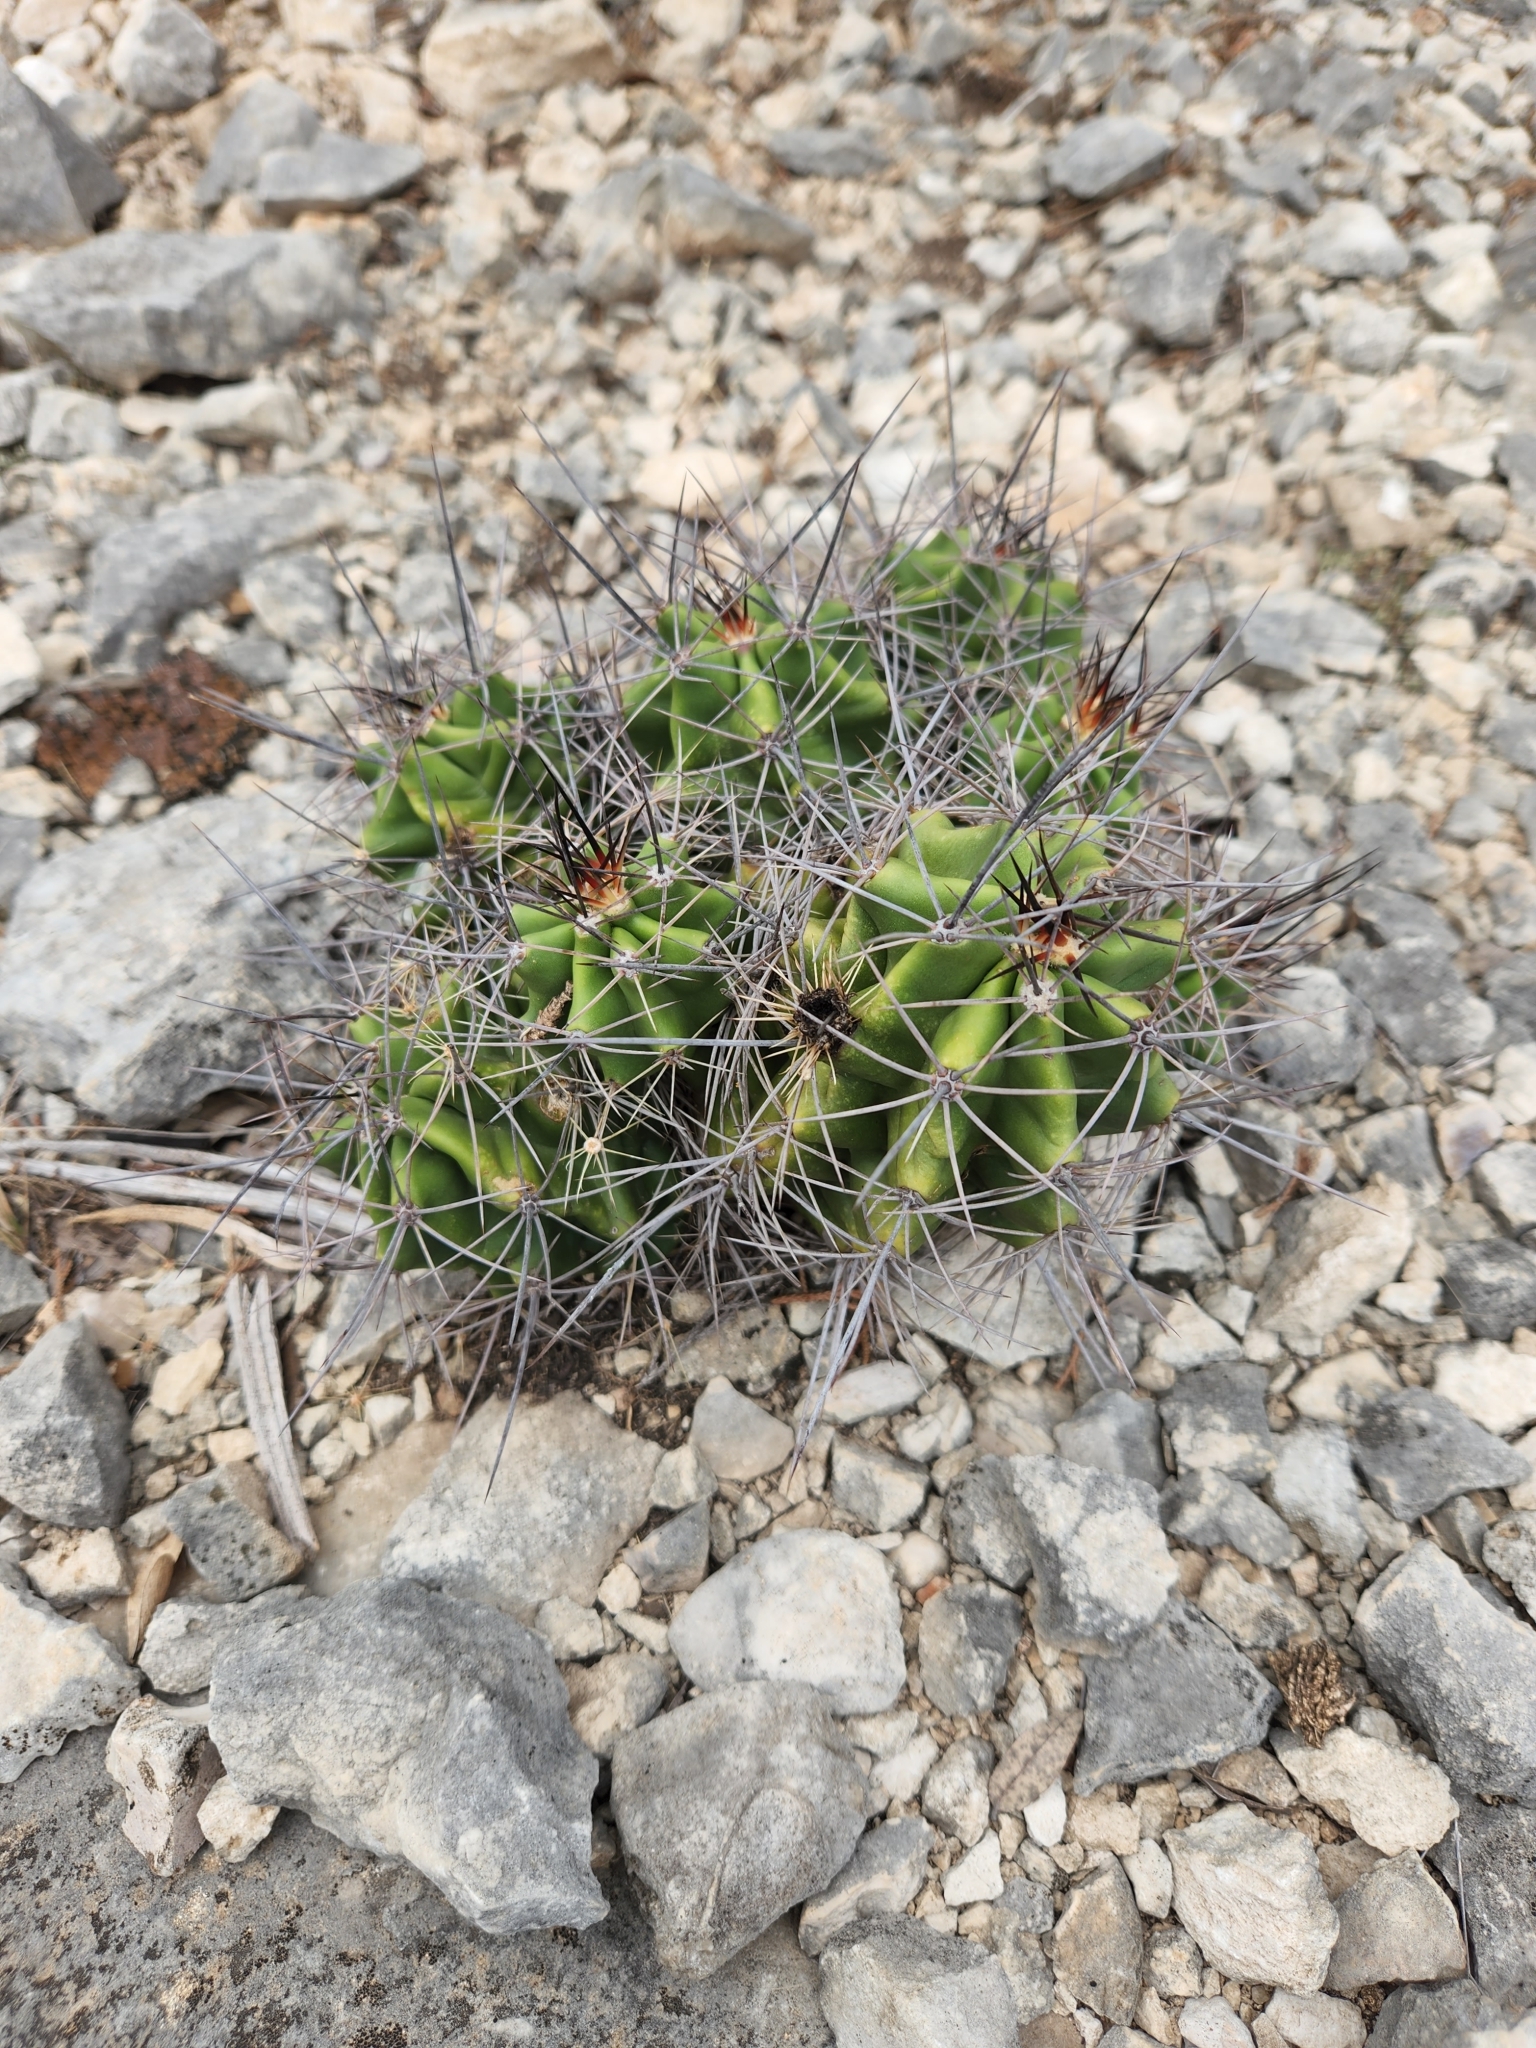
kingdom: Plantae
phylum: Tracheophyta
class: Magnoliopsida
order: Caryophyllales
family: Cactaceae
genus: Echinocereus
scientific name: Echinocereus coccineus
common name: Scarlet hedgehog cactus
